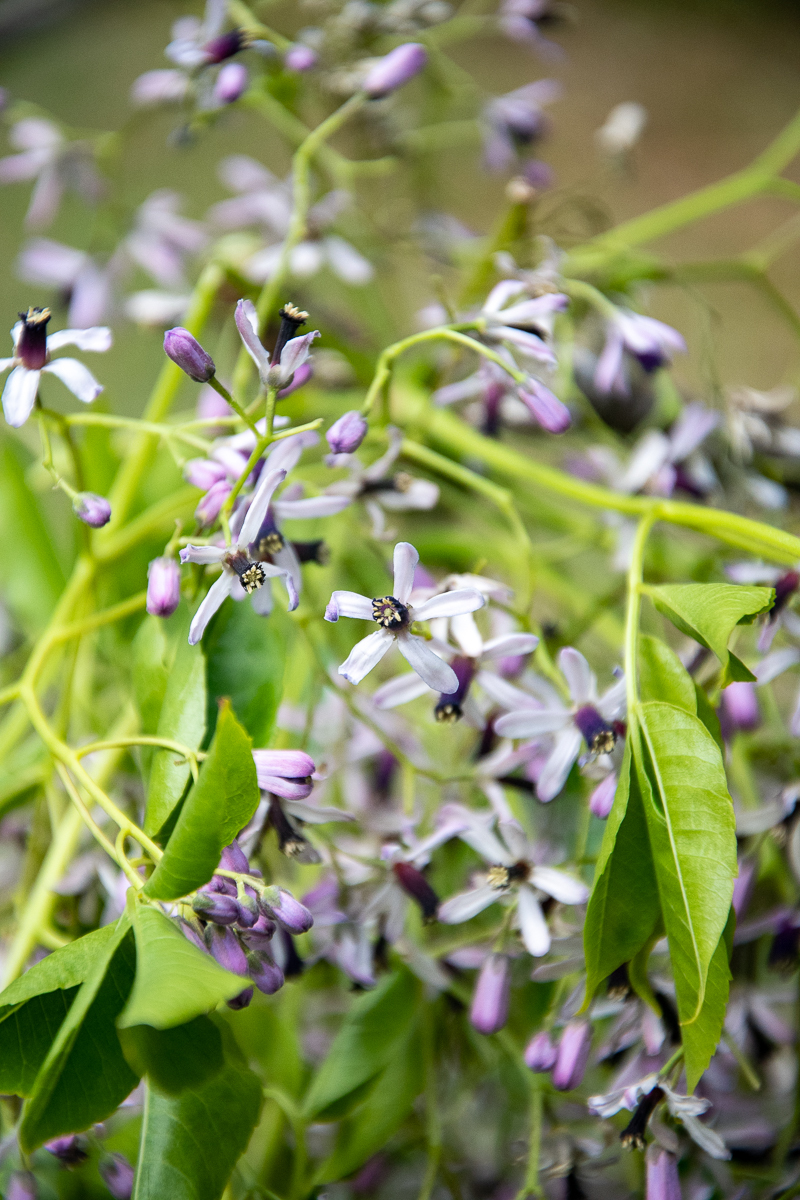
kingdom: Plantae
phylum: Tracheophyta
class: Magnoliopsida
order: Sapindales
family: Meliaceae
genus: Melia
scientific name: Melia azedarach
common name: Chinaberrytree
